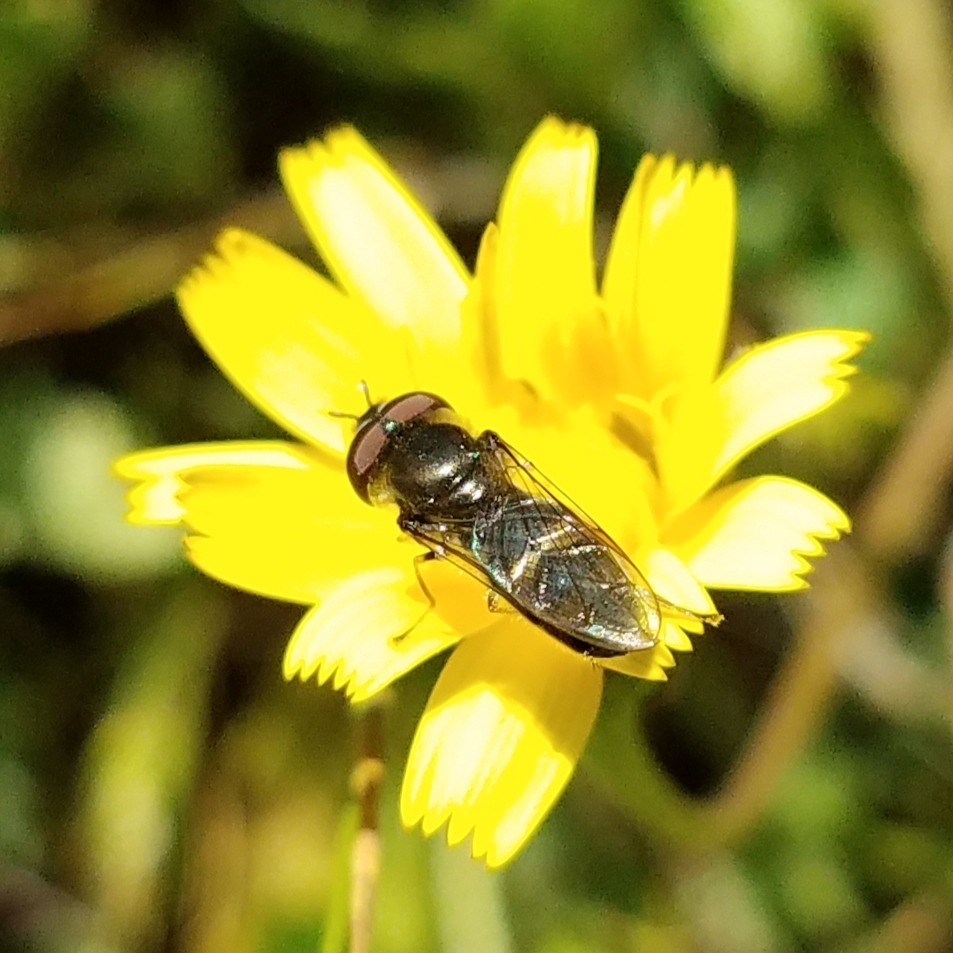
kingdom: Animalia
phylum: Arthropoda
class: Insecta
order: Diptera
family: Syrphidae
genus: Platycheirus
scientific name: Platycheirus
